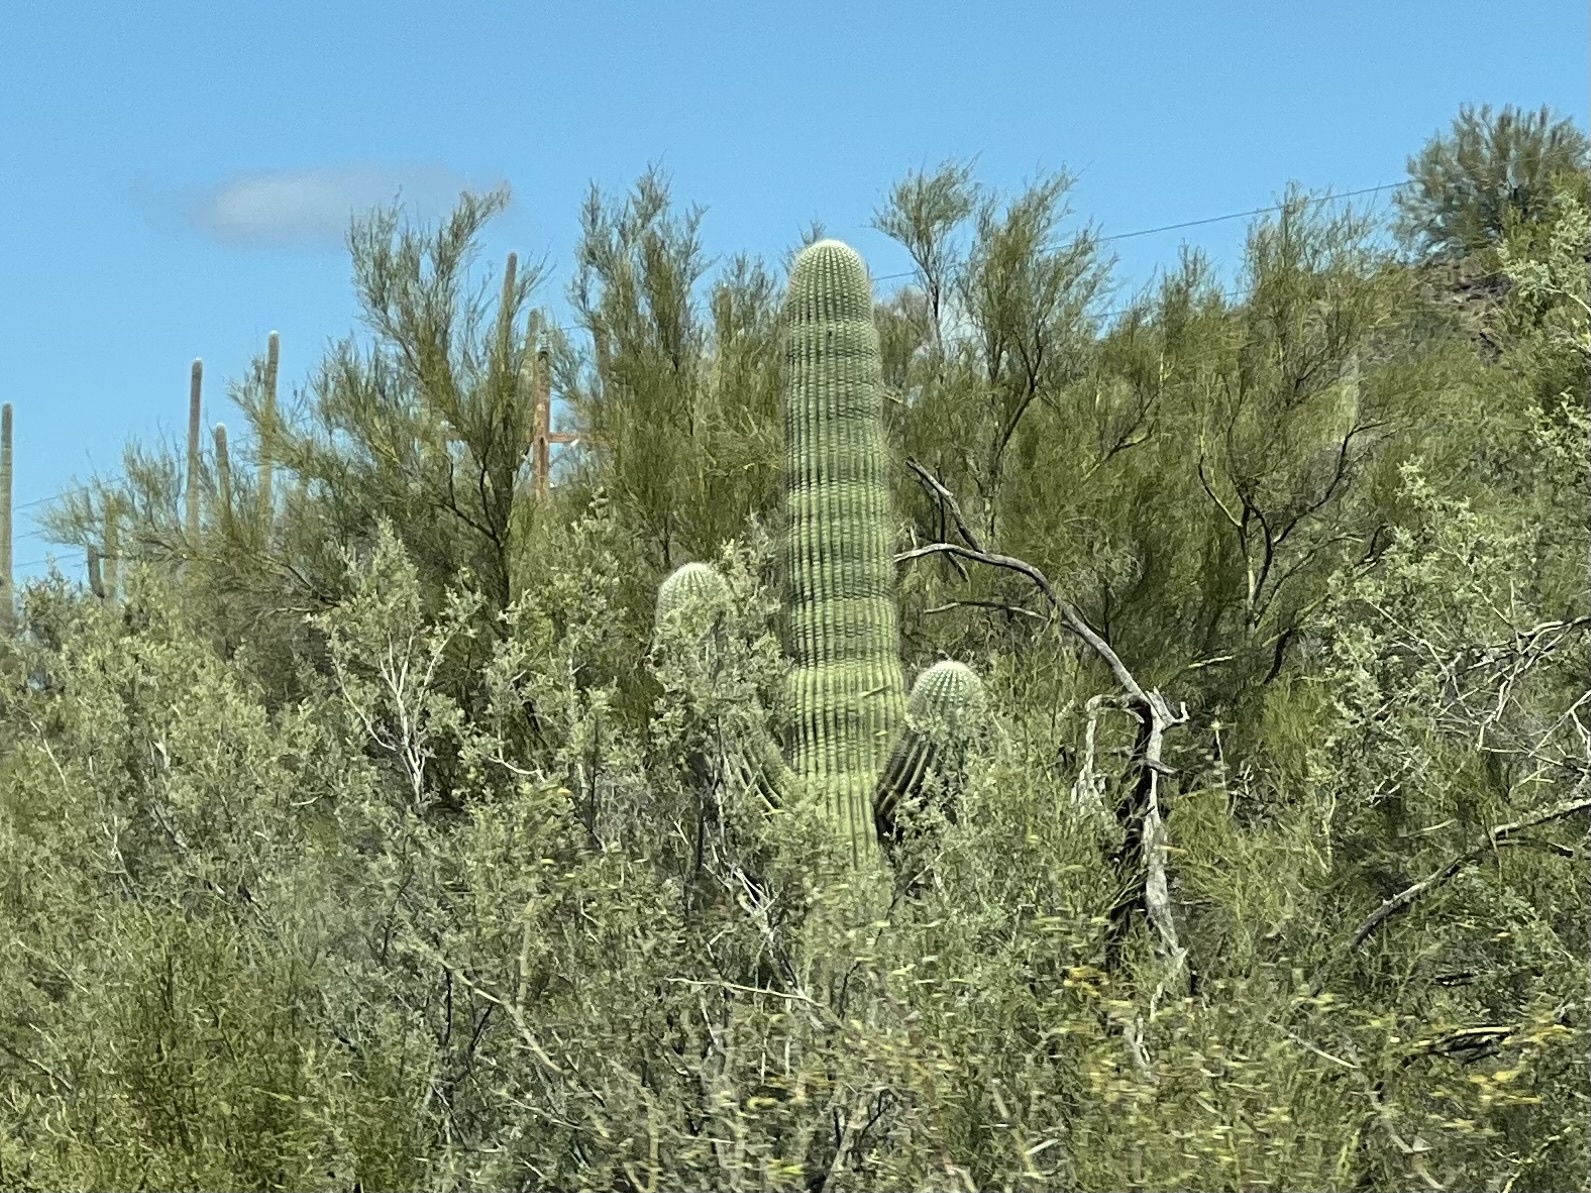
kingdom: Plantae
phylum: Tracheophyta
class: Magnoliopsida
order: Caryophyllales
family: Cactaceae
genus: Carnegiea
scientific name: Carnegiea gigantea
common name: Saguaro
